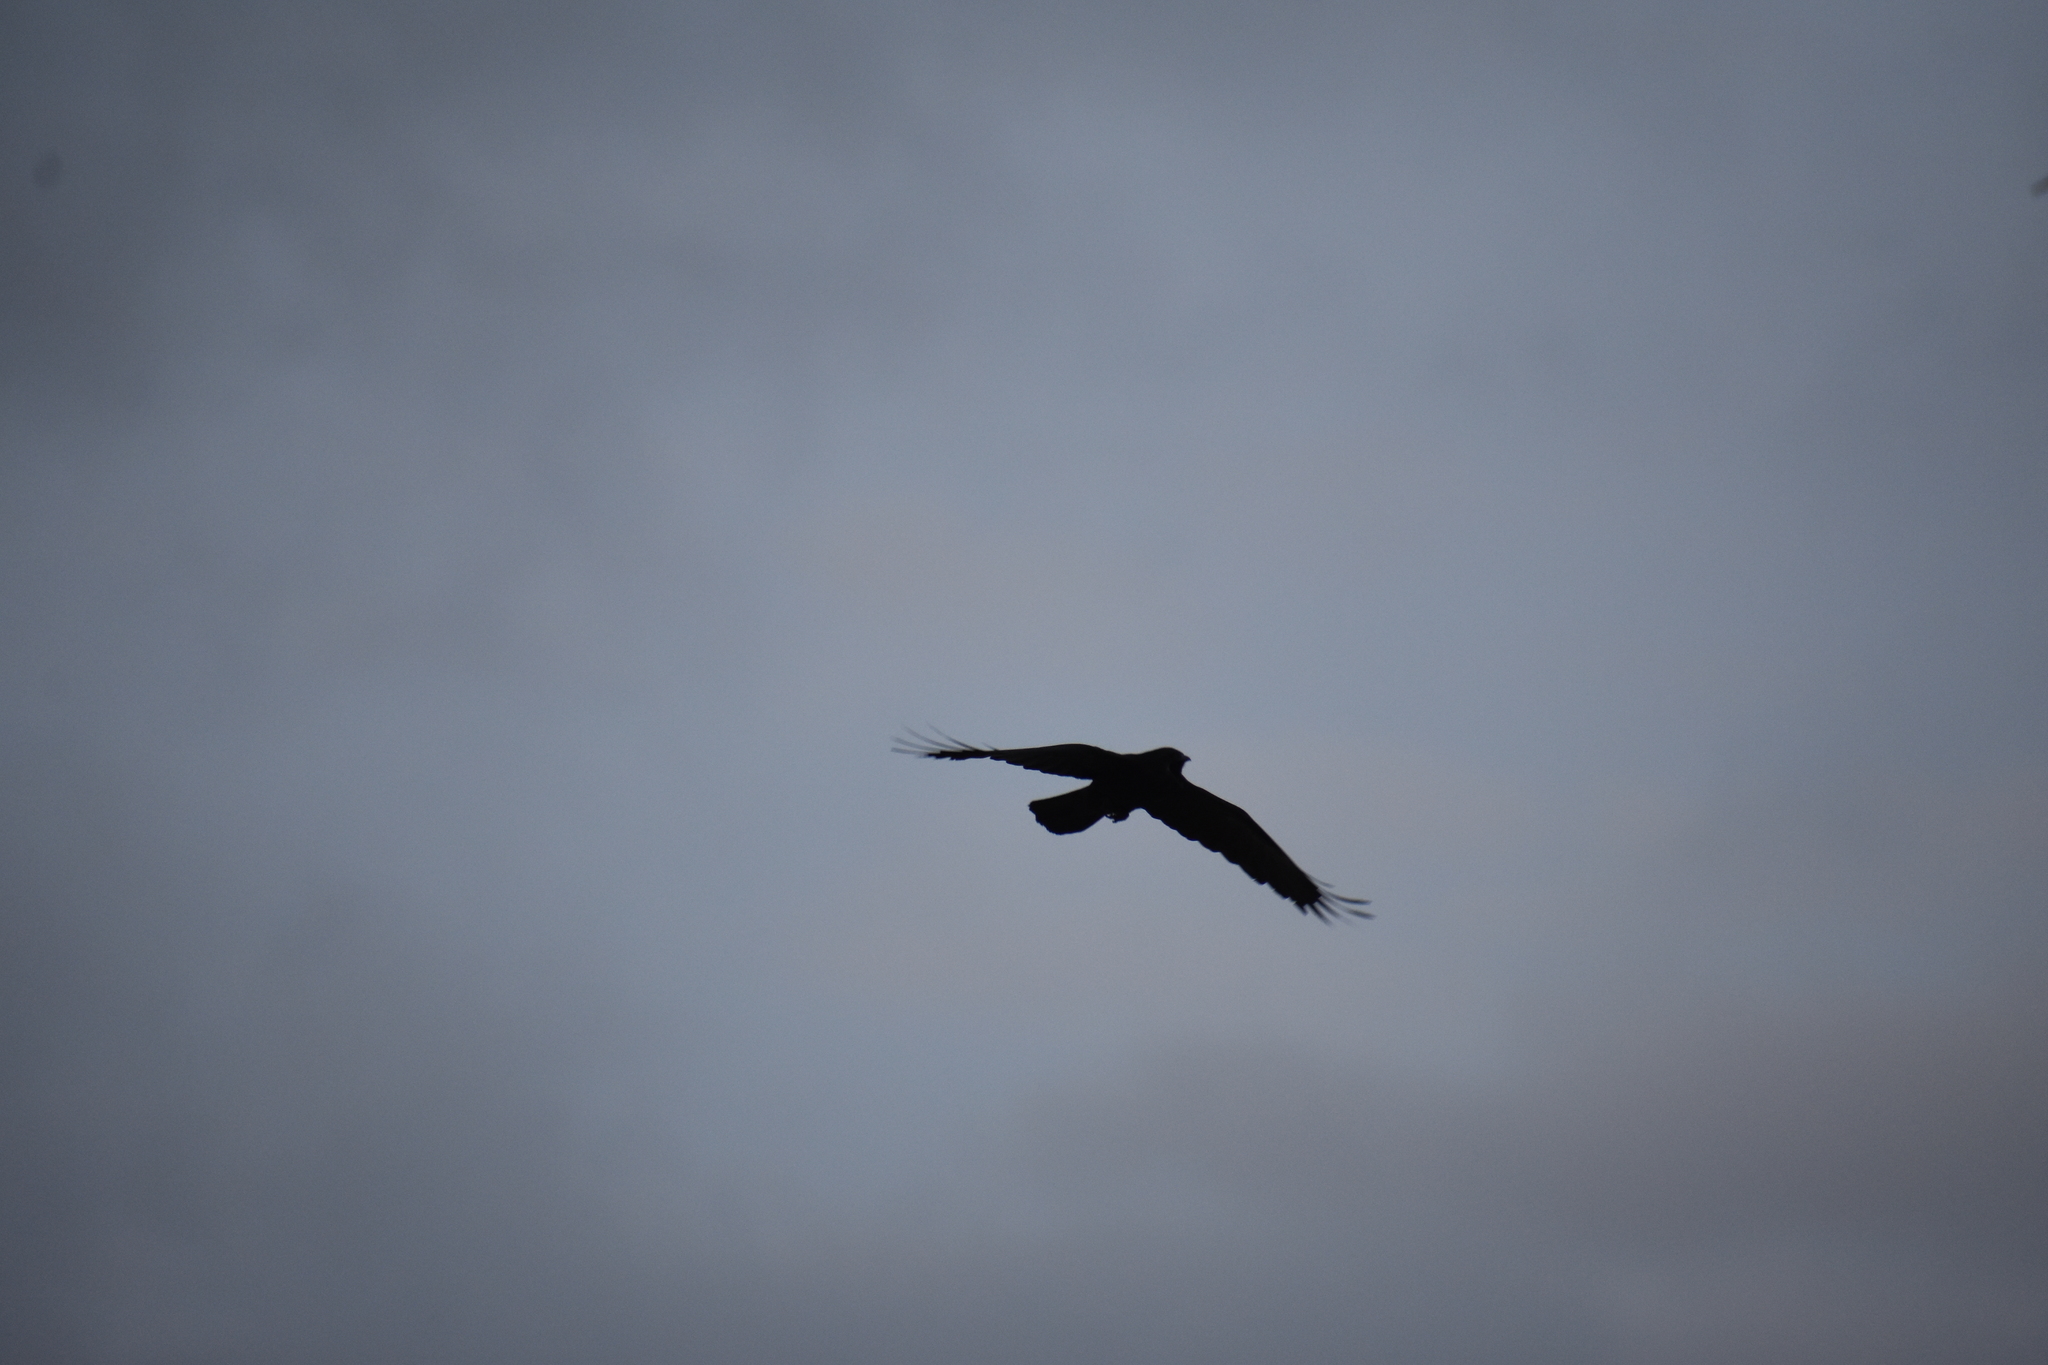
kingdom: Animalia
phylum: Chordata
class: Aves
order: Passeriformes
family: Corvidae
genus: Corvus
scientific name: Corvus ossifragus
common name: Fish crow
